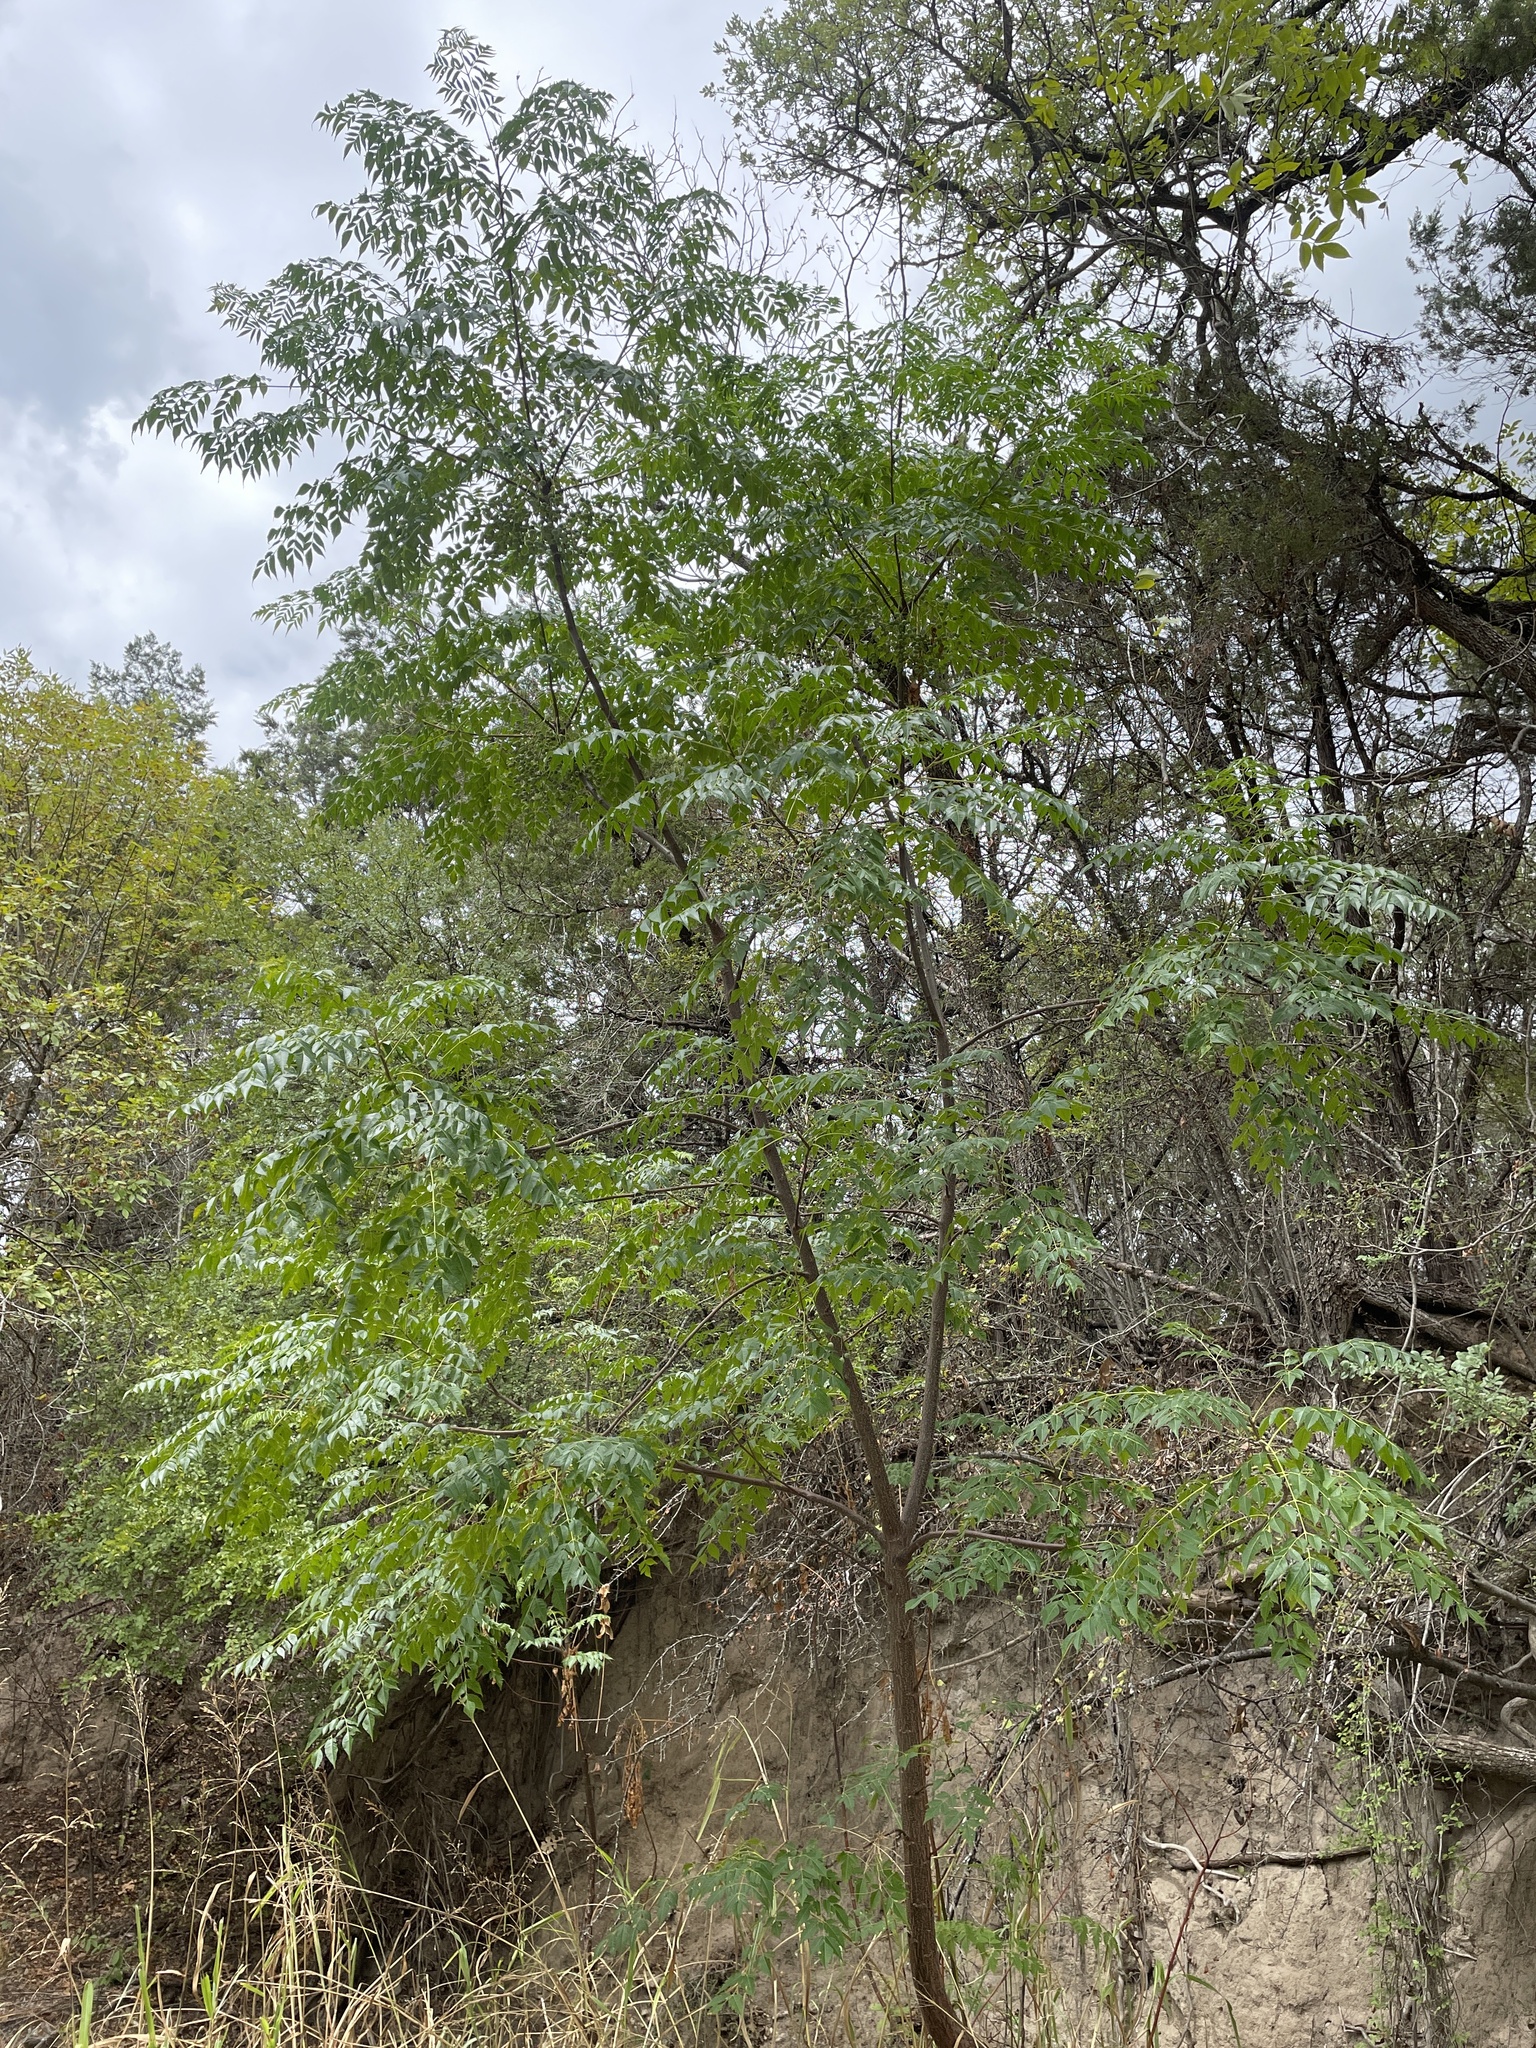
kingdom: Plantae
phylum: Tracheophyta
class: Magnoliopsida
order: Sapindales
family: Meliaceae
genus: Melia
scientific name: Melia azedarach
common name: Chinaberrytree
